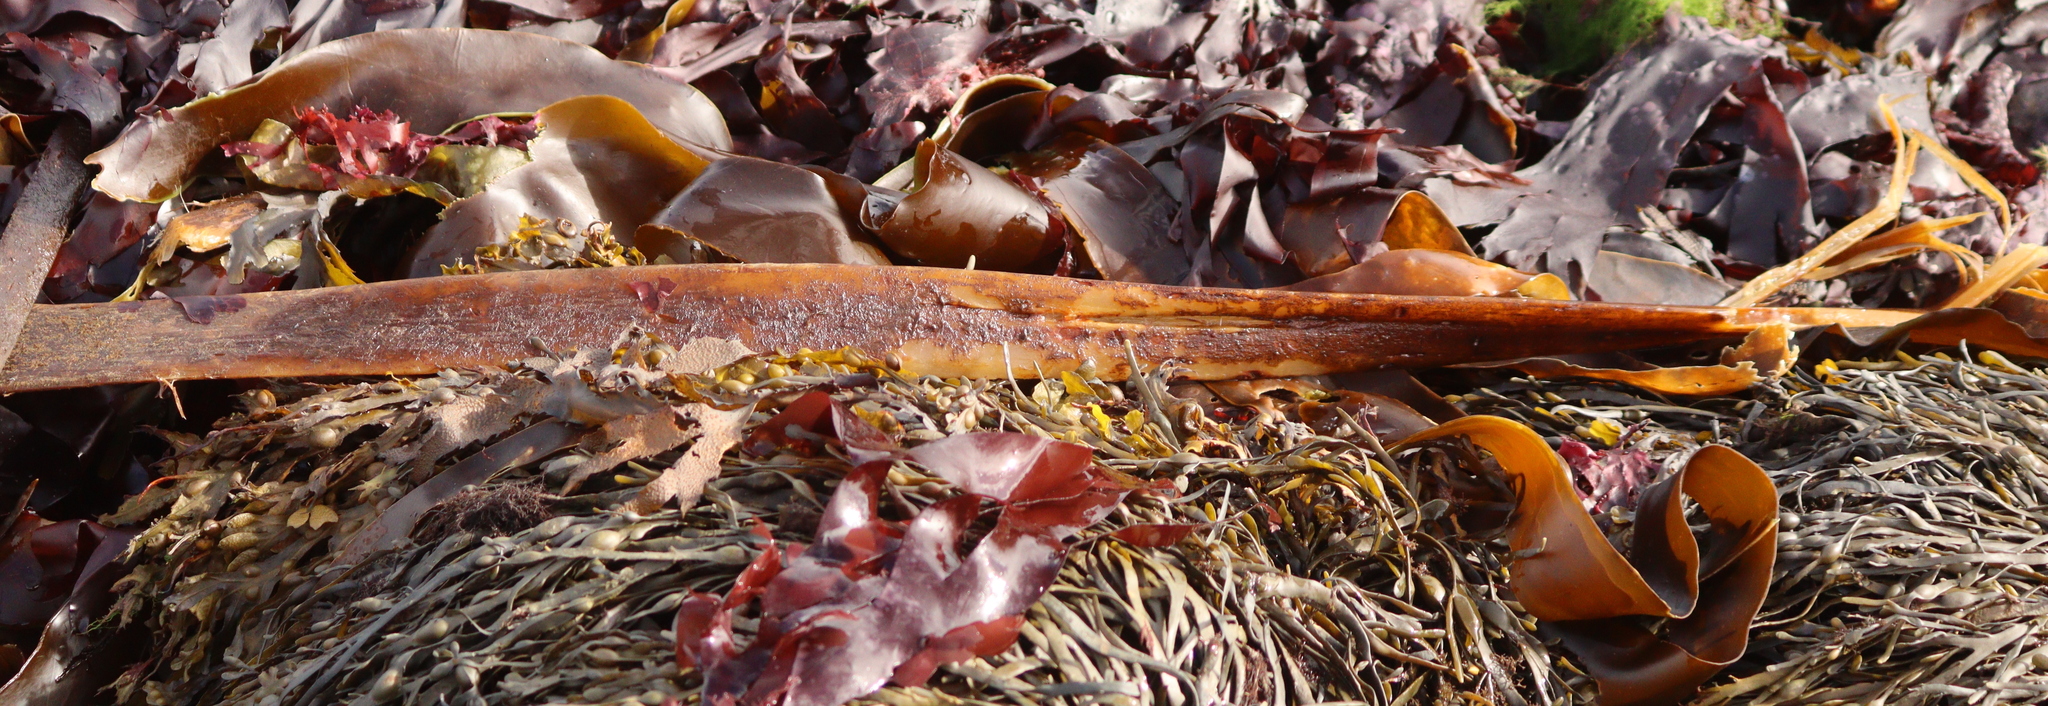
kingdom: Chromista
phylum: Ochrophyta
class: Phaeophyceae
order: Tilopteridales
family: Phyllariaceae
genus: Saccorhiza
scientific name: Saccorhiza polyschides
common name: Furbelows
